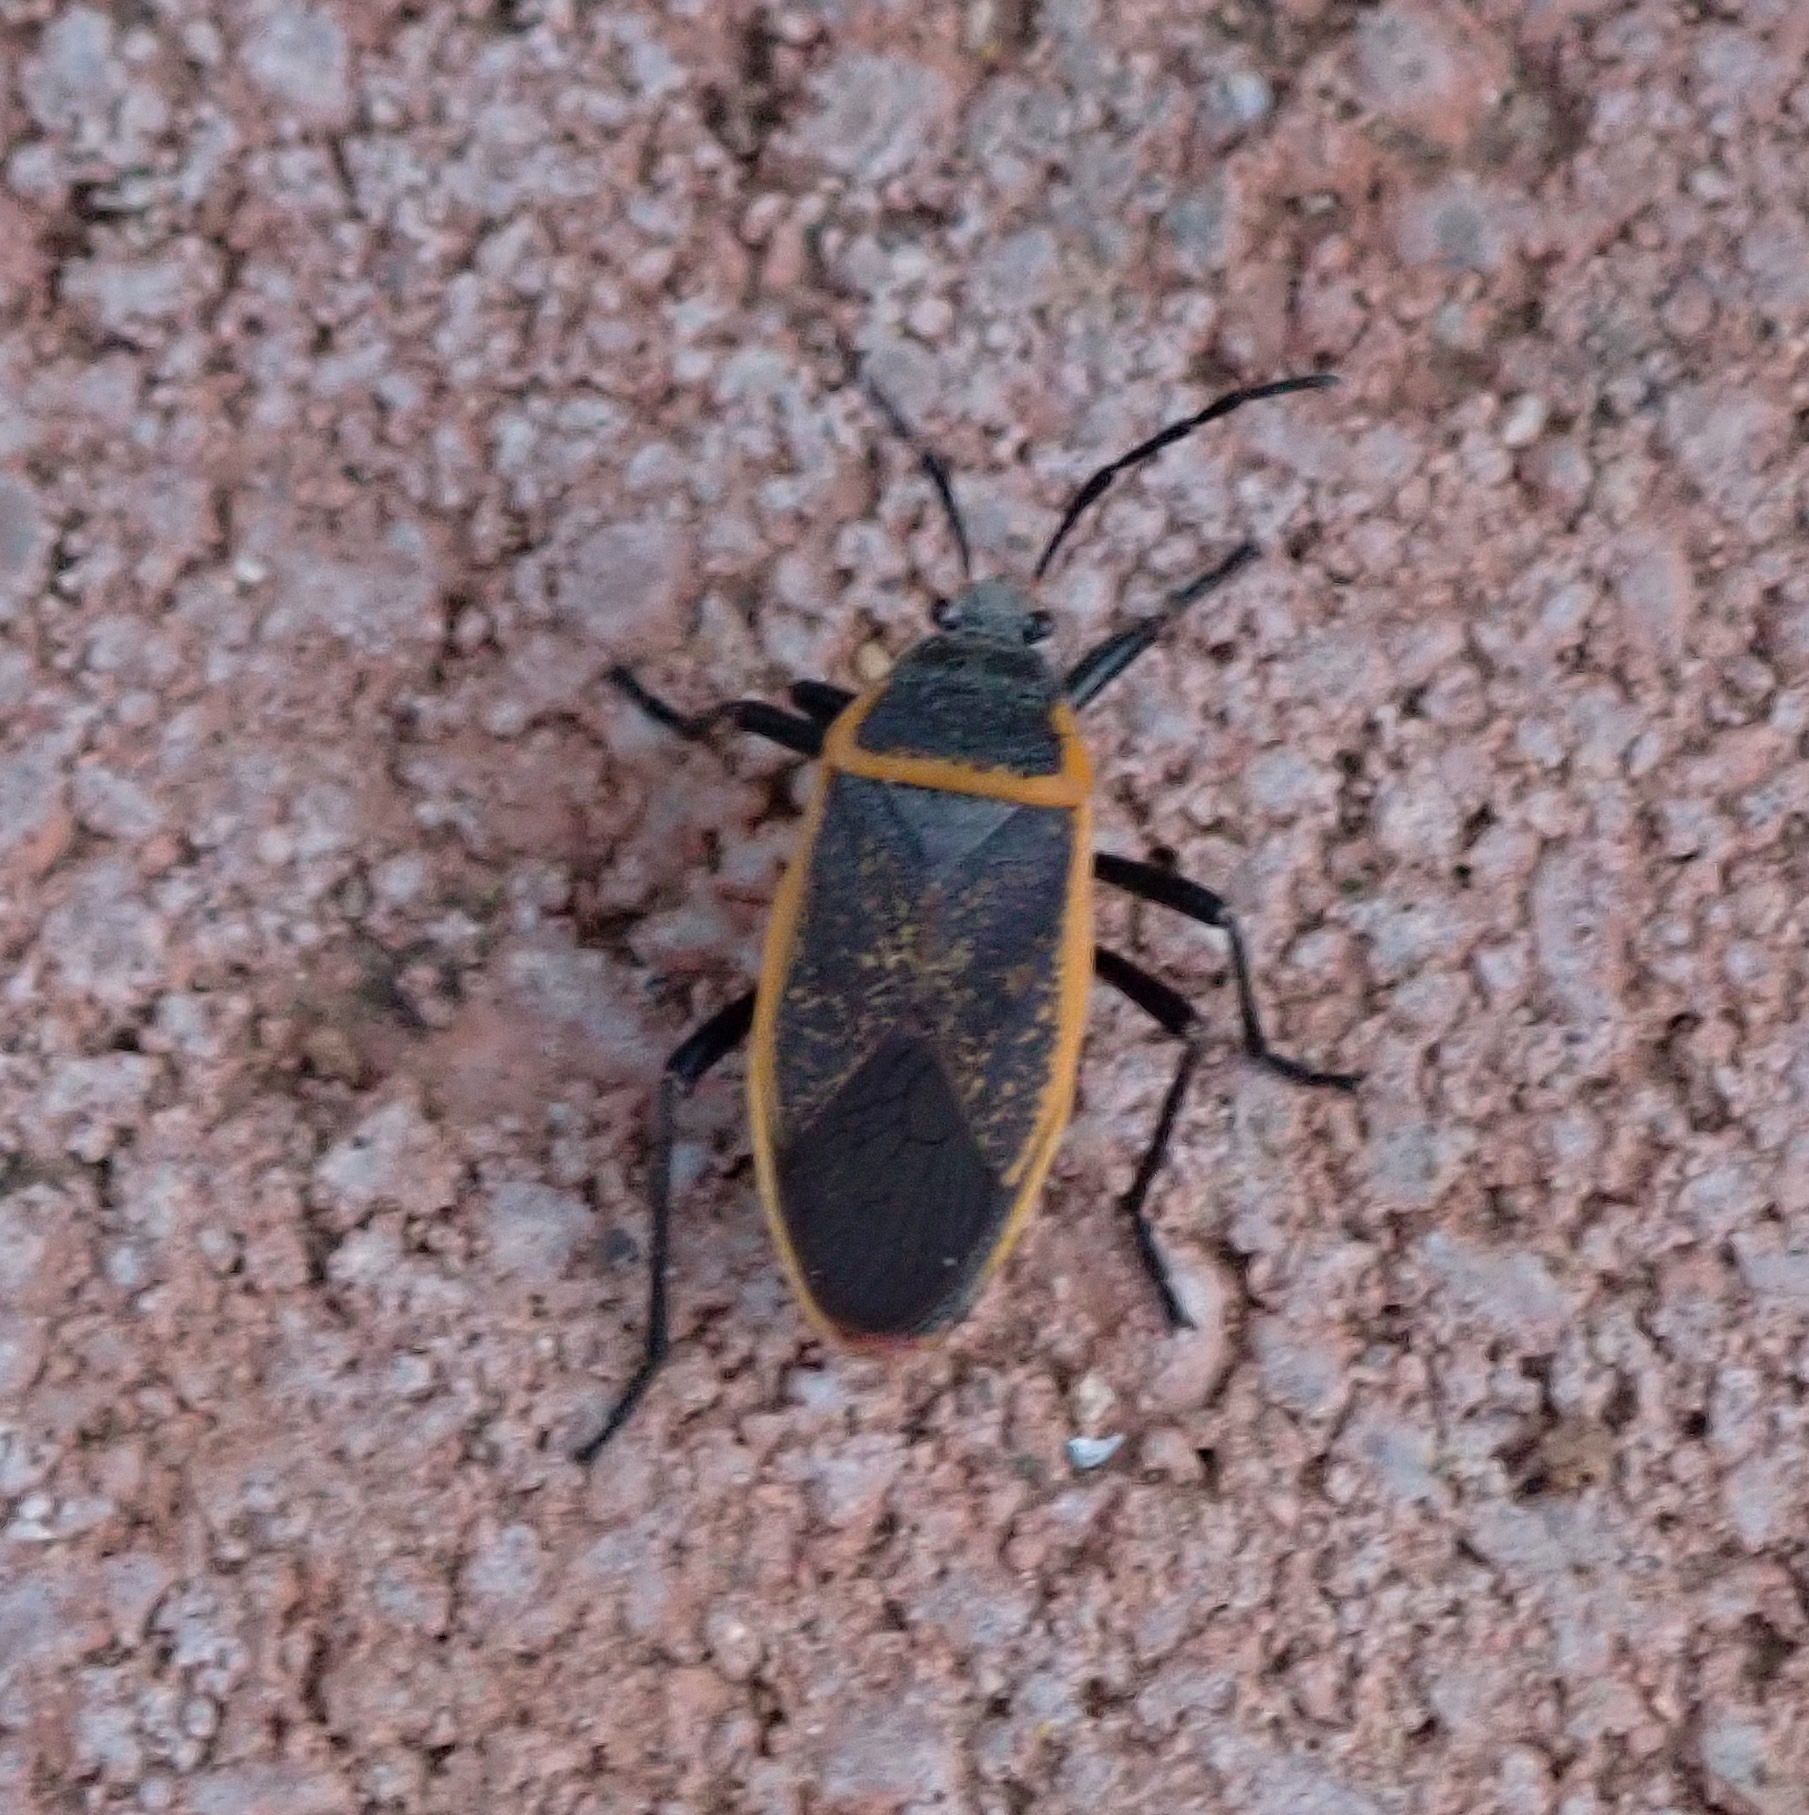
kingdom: Animalia
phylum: Arthropoda
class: Insecta
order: Hemiptera
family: Largidae
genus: Largus
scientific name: Largus californicus
